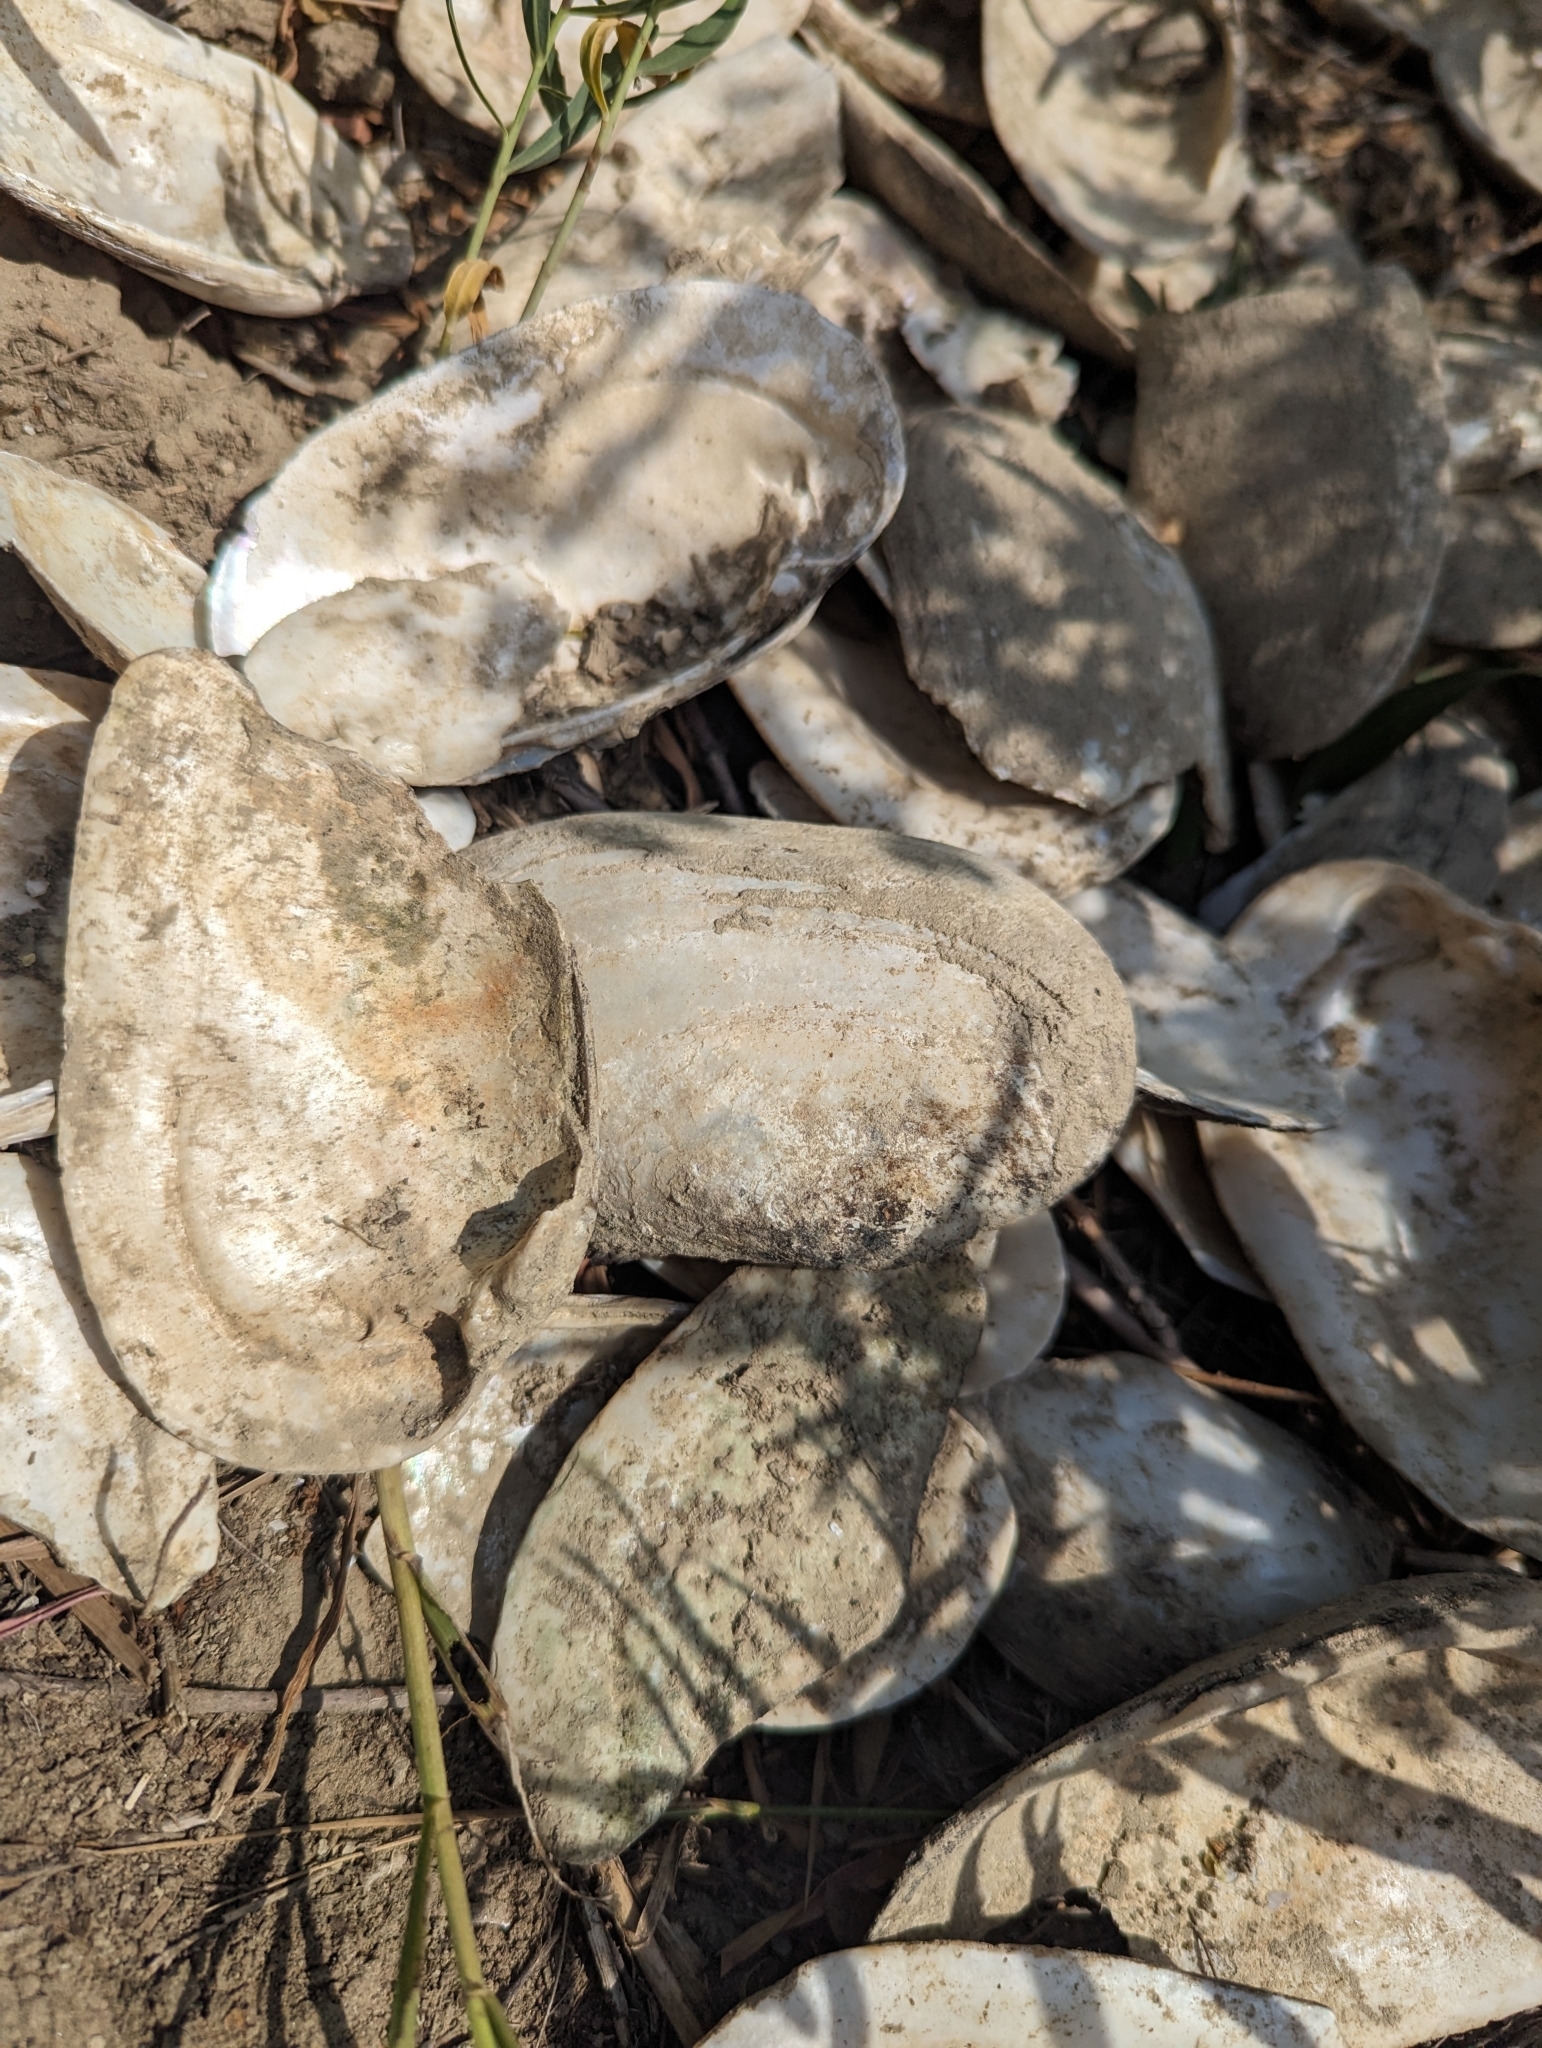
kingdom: Animalia
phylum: Mollusca
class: Bivalvia
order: Unionida
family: Unionidae
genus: Lampsilis
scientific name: Lampsilis siliquoidea
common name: Fatmucket
